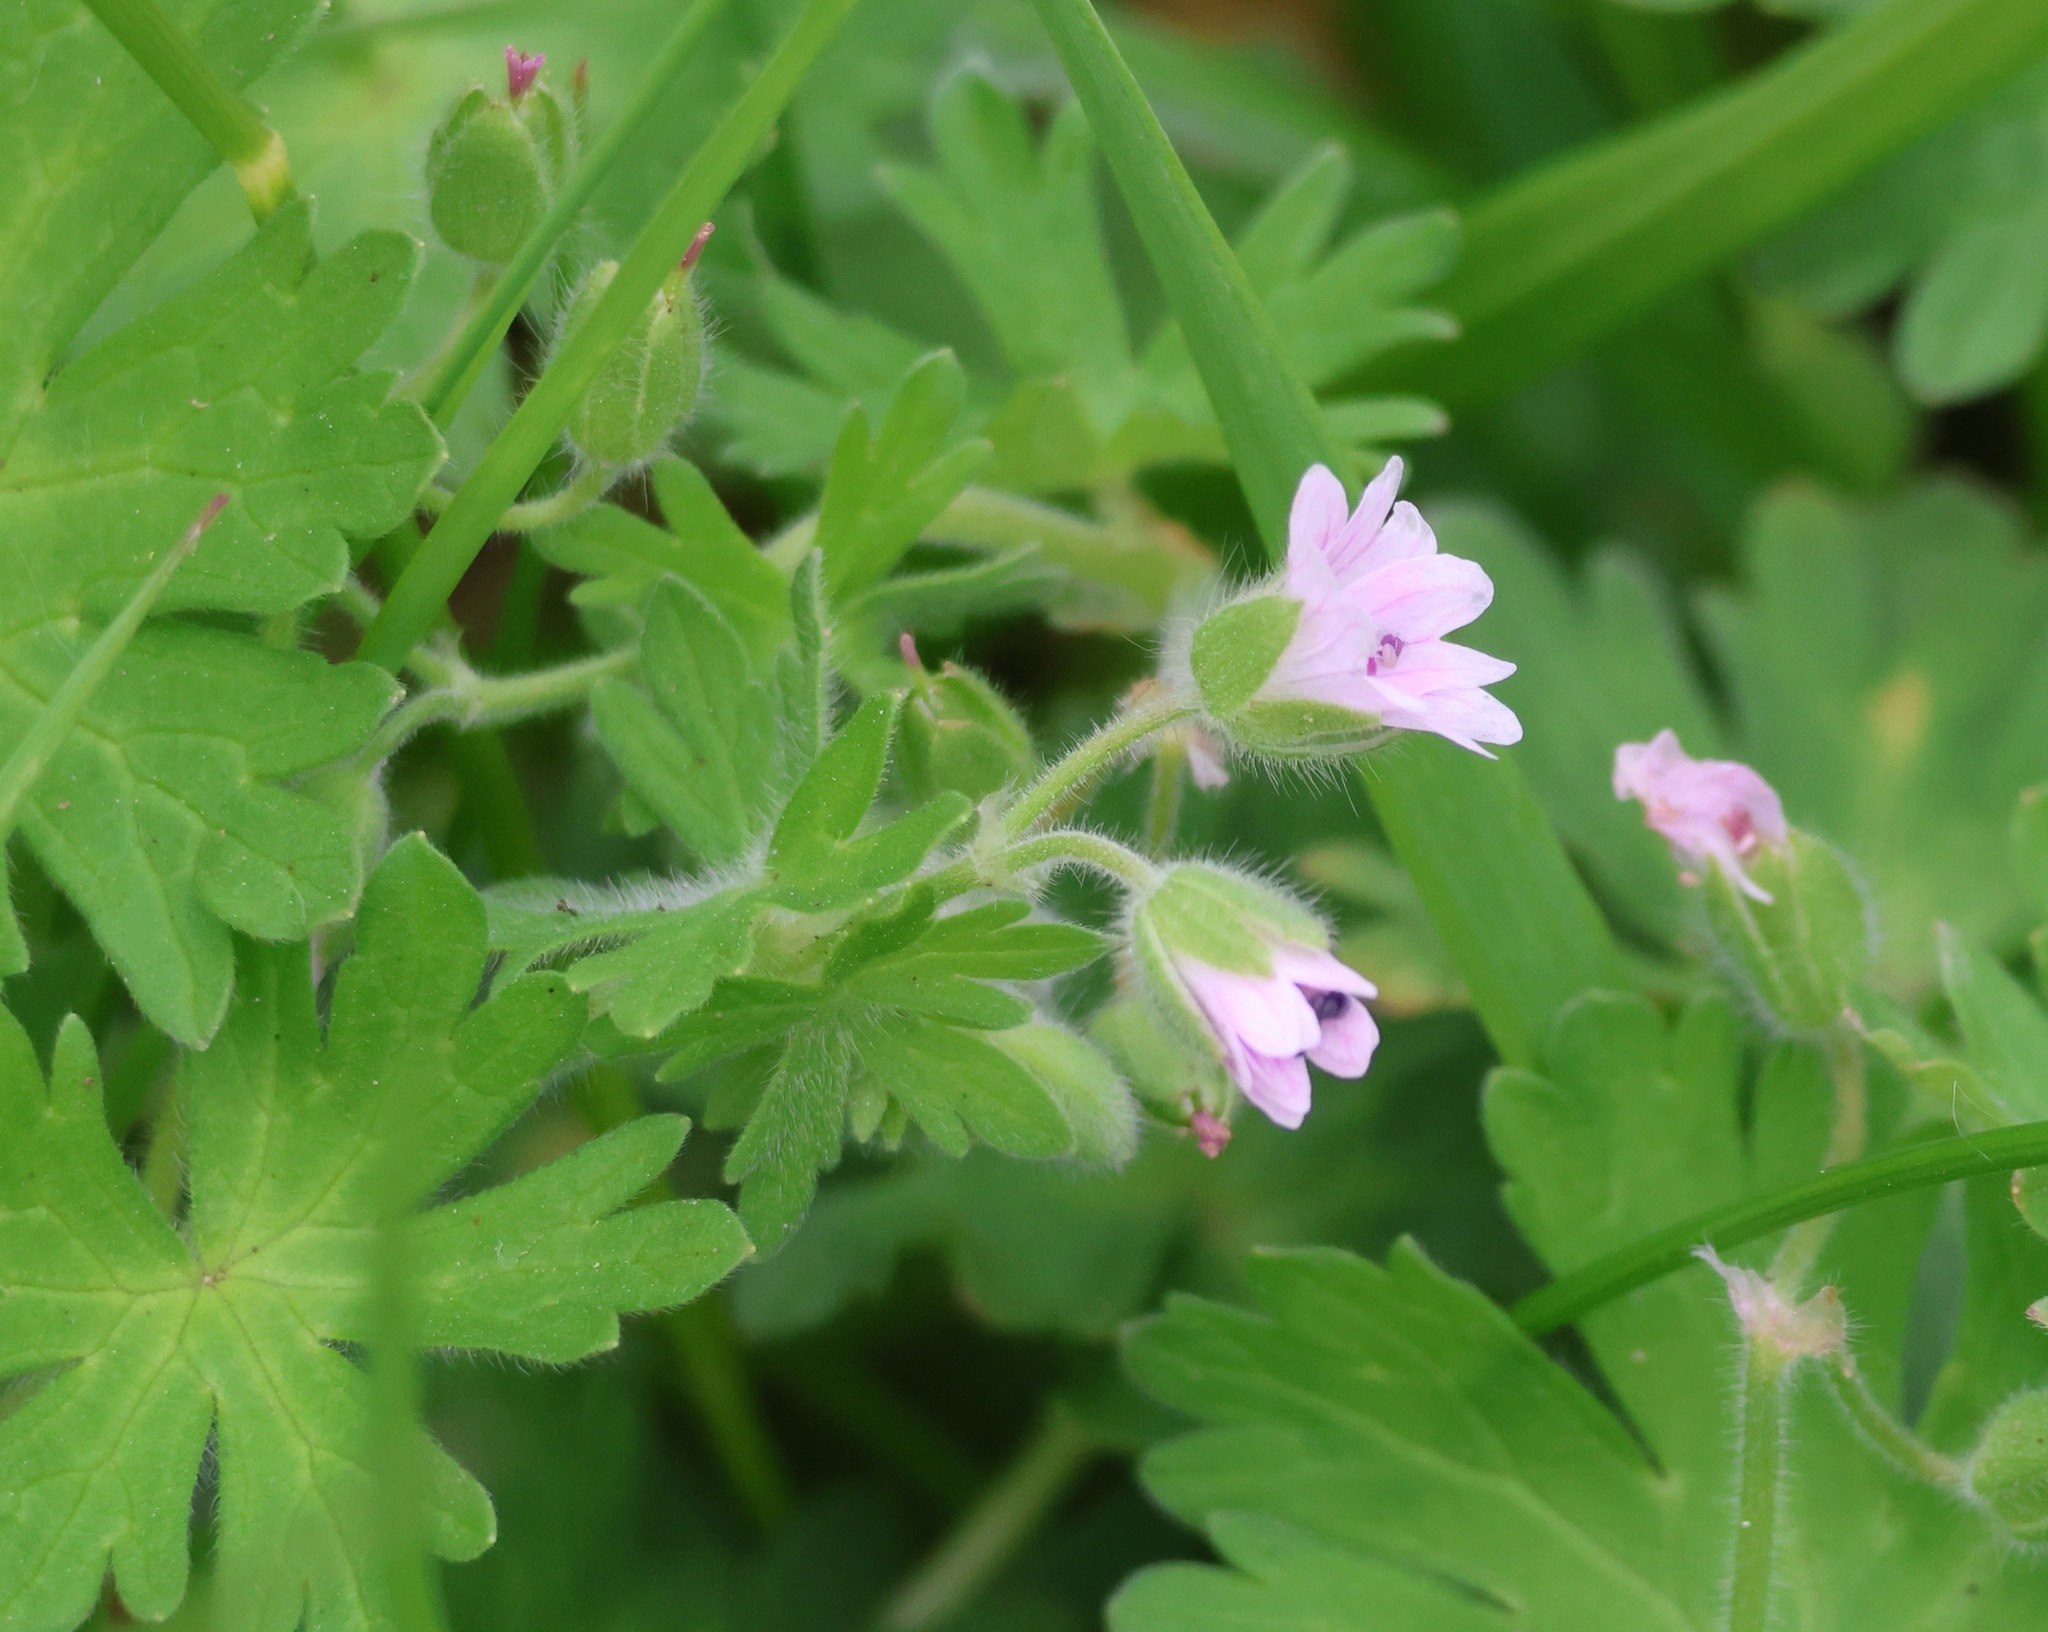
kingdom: Plantae
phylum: Tracheophyta
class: Magnoliopsida
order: Geraniales
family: Geraniaceae
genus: Geranium
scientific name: Geranium molle
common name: Dove's-foot crane's-bill
